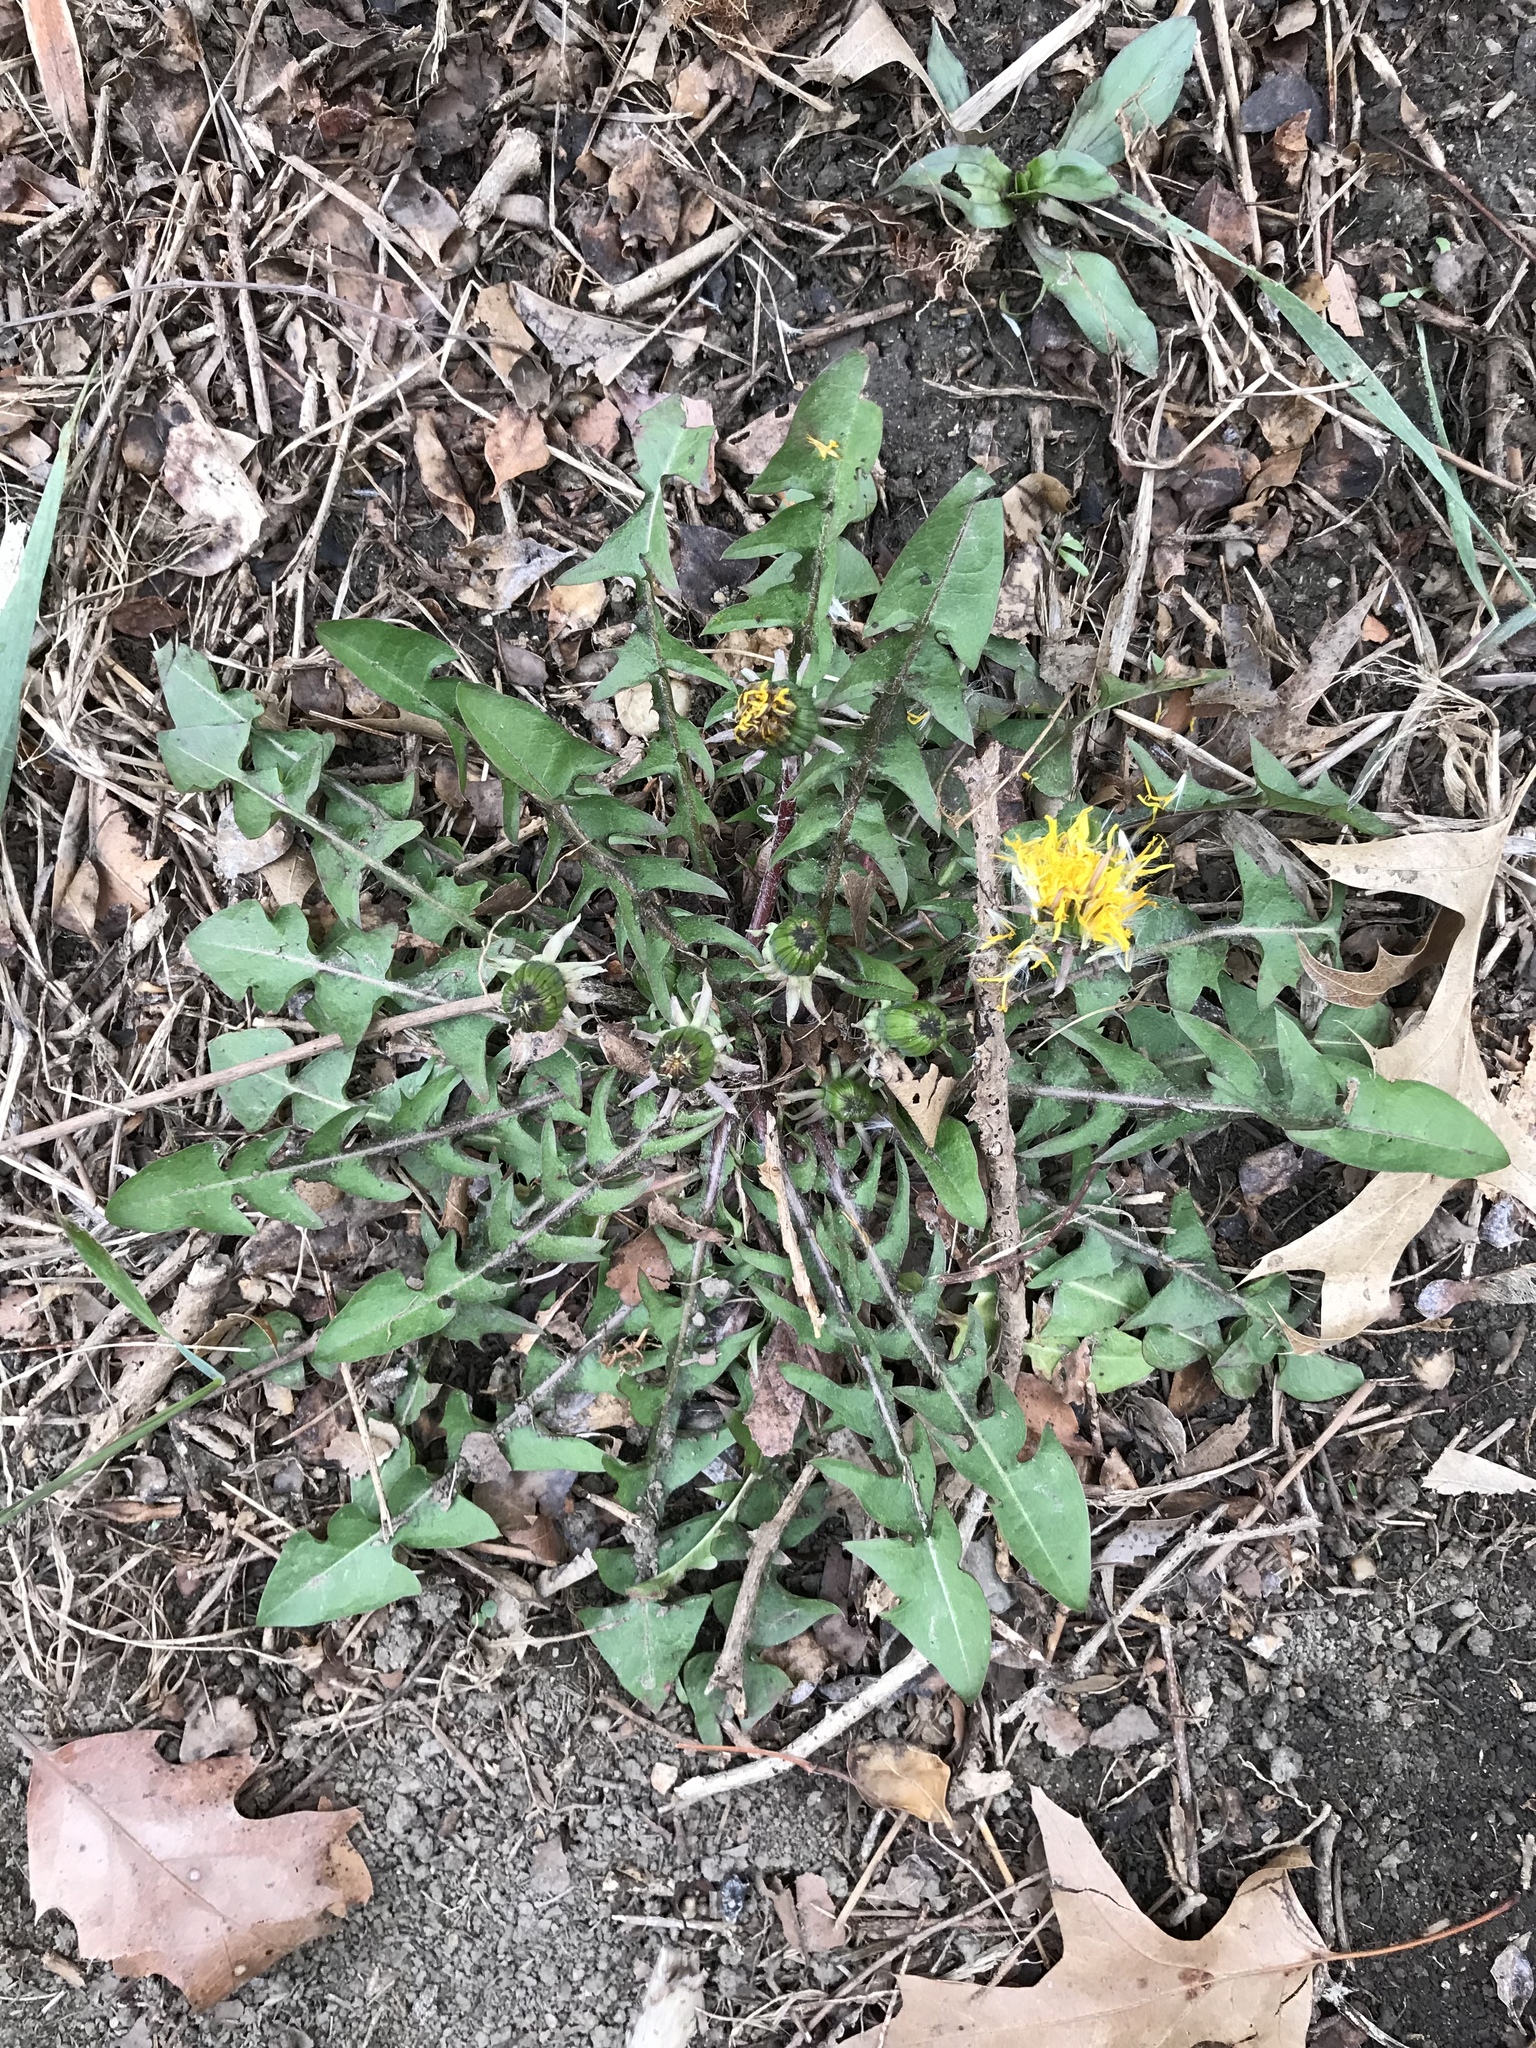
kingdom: Plantae
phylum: Tracheophyta
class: Magnoliopsida
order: Asterales
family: Asteraceae
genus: Taraxacum
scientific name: Taraxacum officinale
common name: Common dandelion
